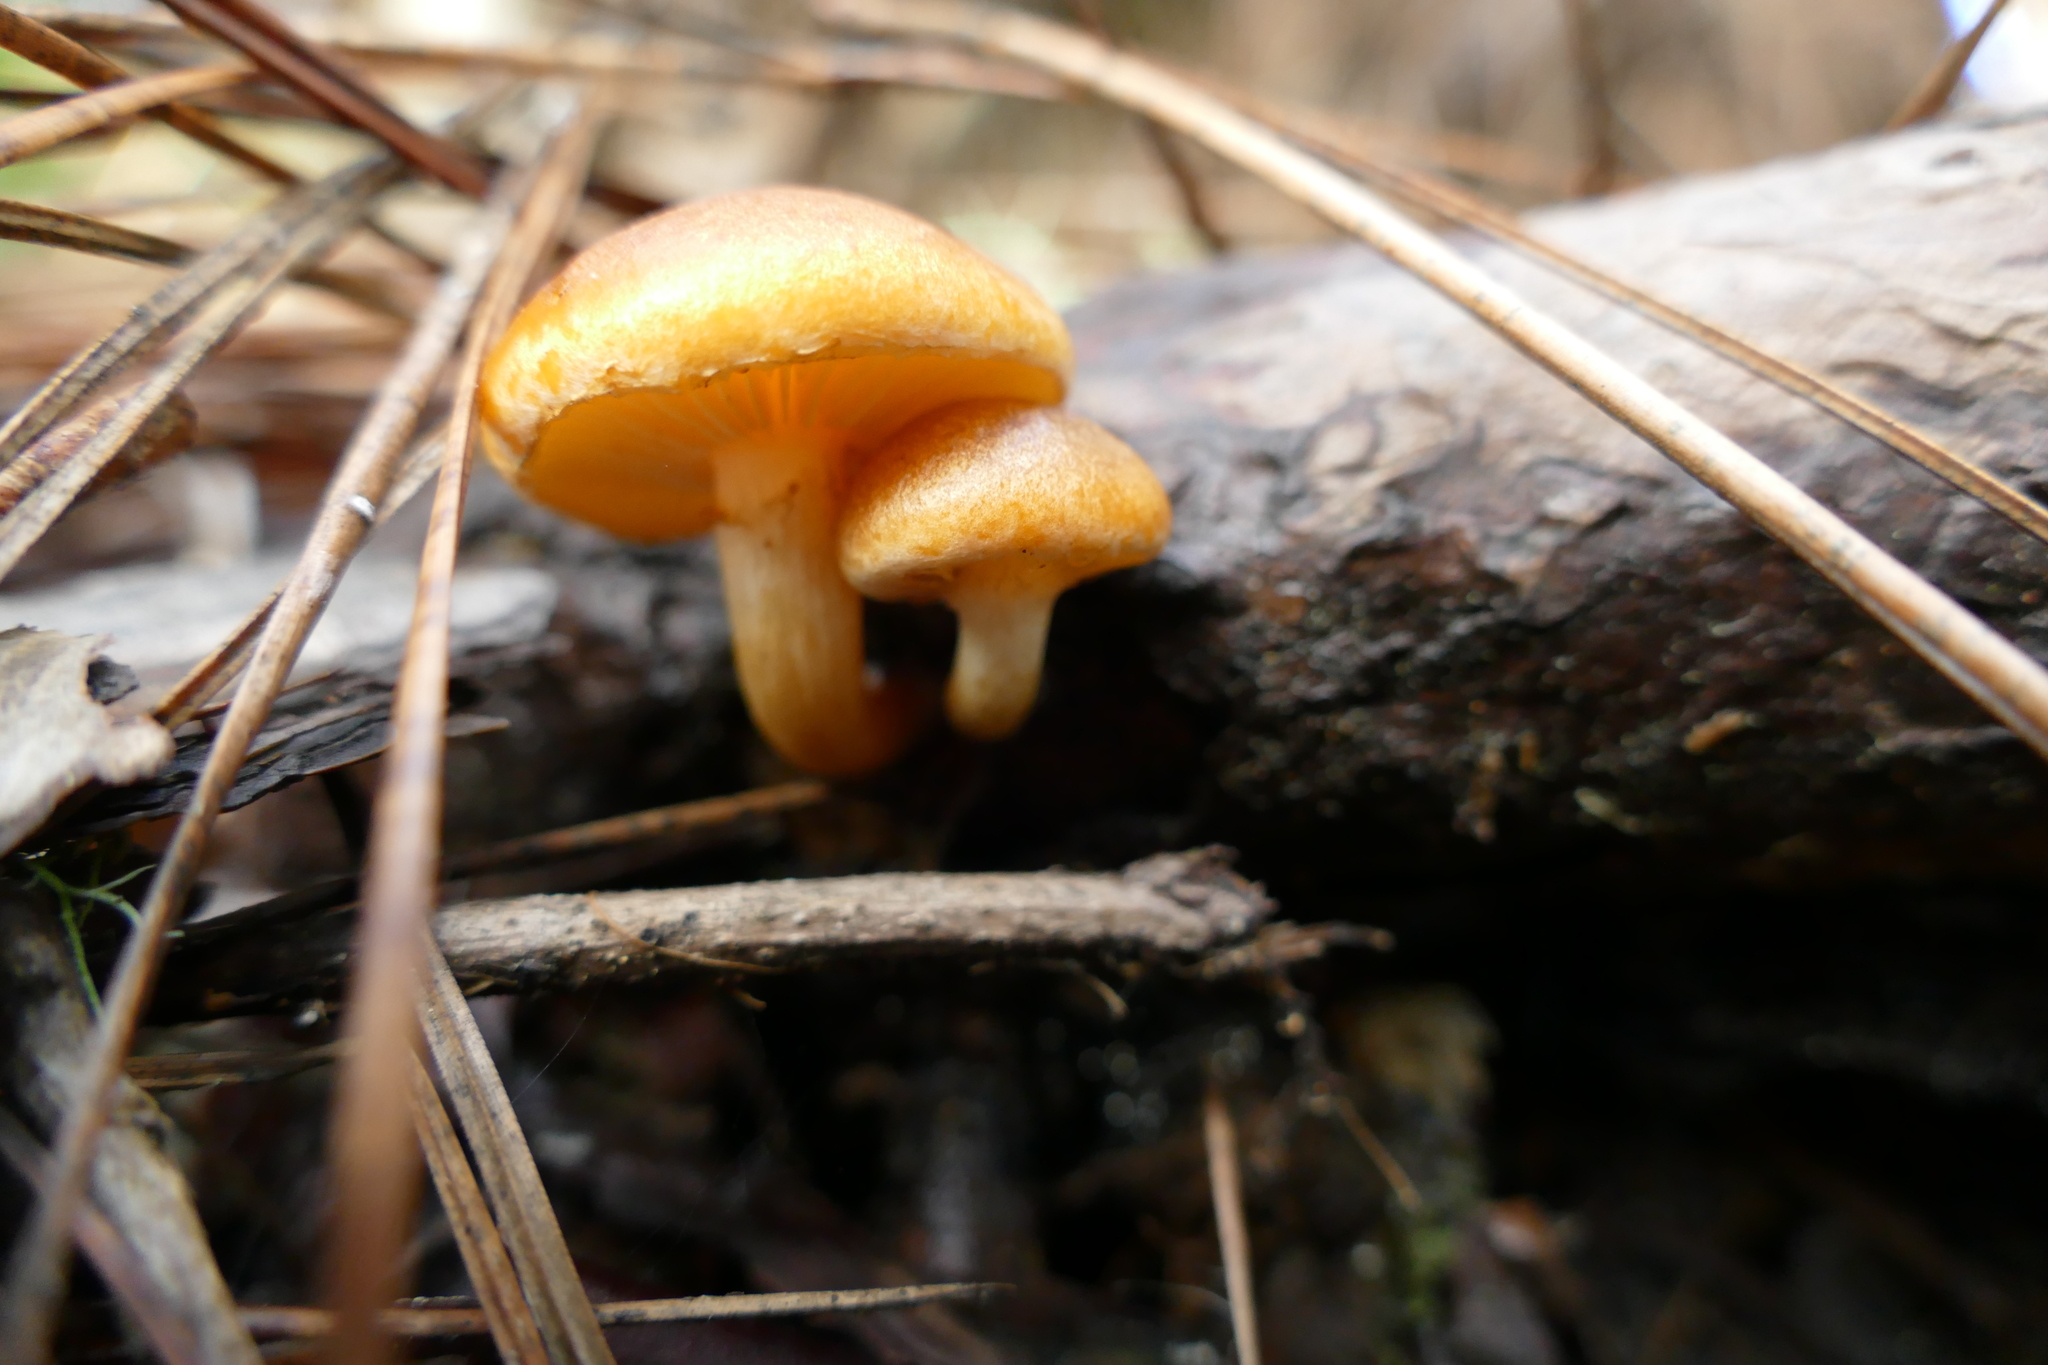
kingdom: Fungi
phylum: Basidiomycota
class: Agaricomycetes
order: Agaricales
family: Hymenogastraceae
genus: Gymnopilus
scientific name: Gymnopilus sapineus
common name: Scaly rustgill
